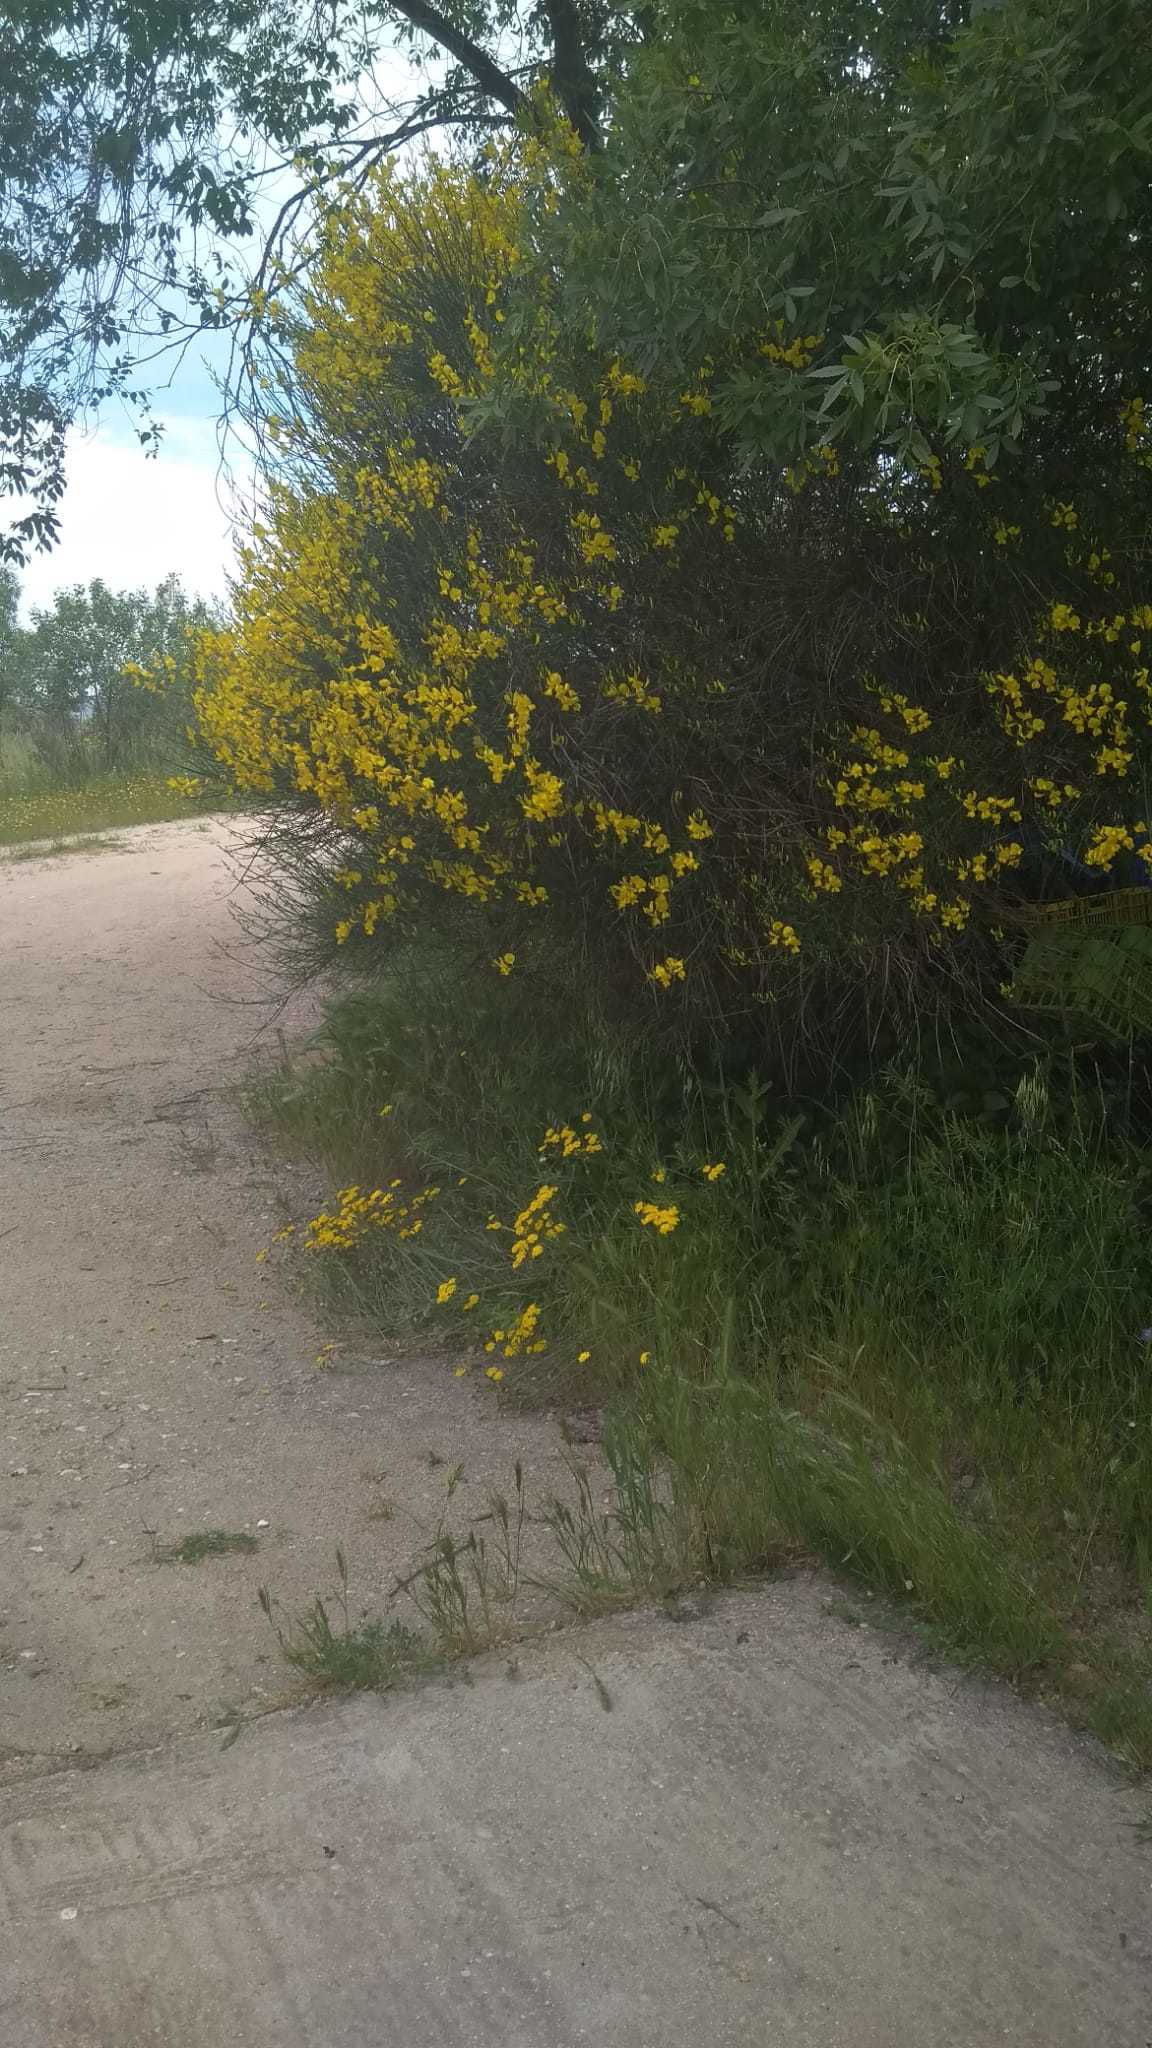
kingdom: Plantae
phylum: Tracheophyta
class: Magnoliopsida
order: Fabales
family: Fabaceae
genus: Spartium
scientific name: Spartium junceum
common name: Spanish broom
